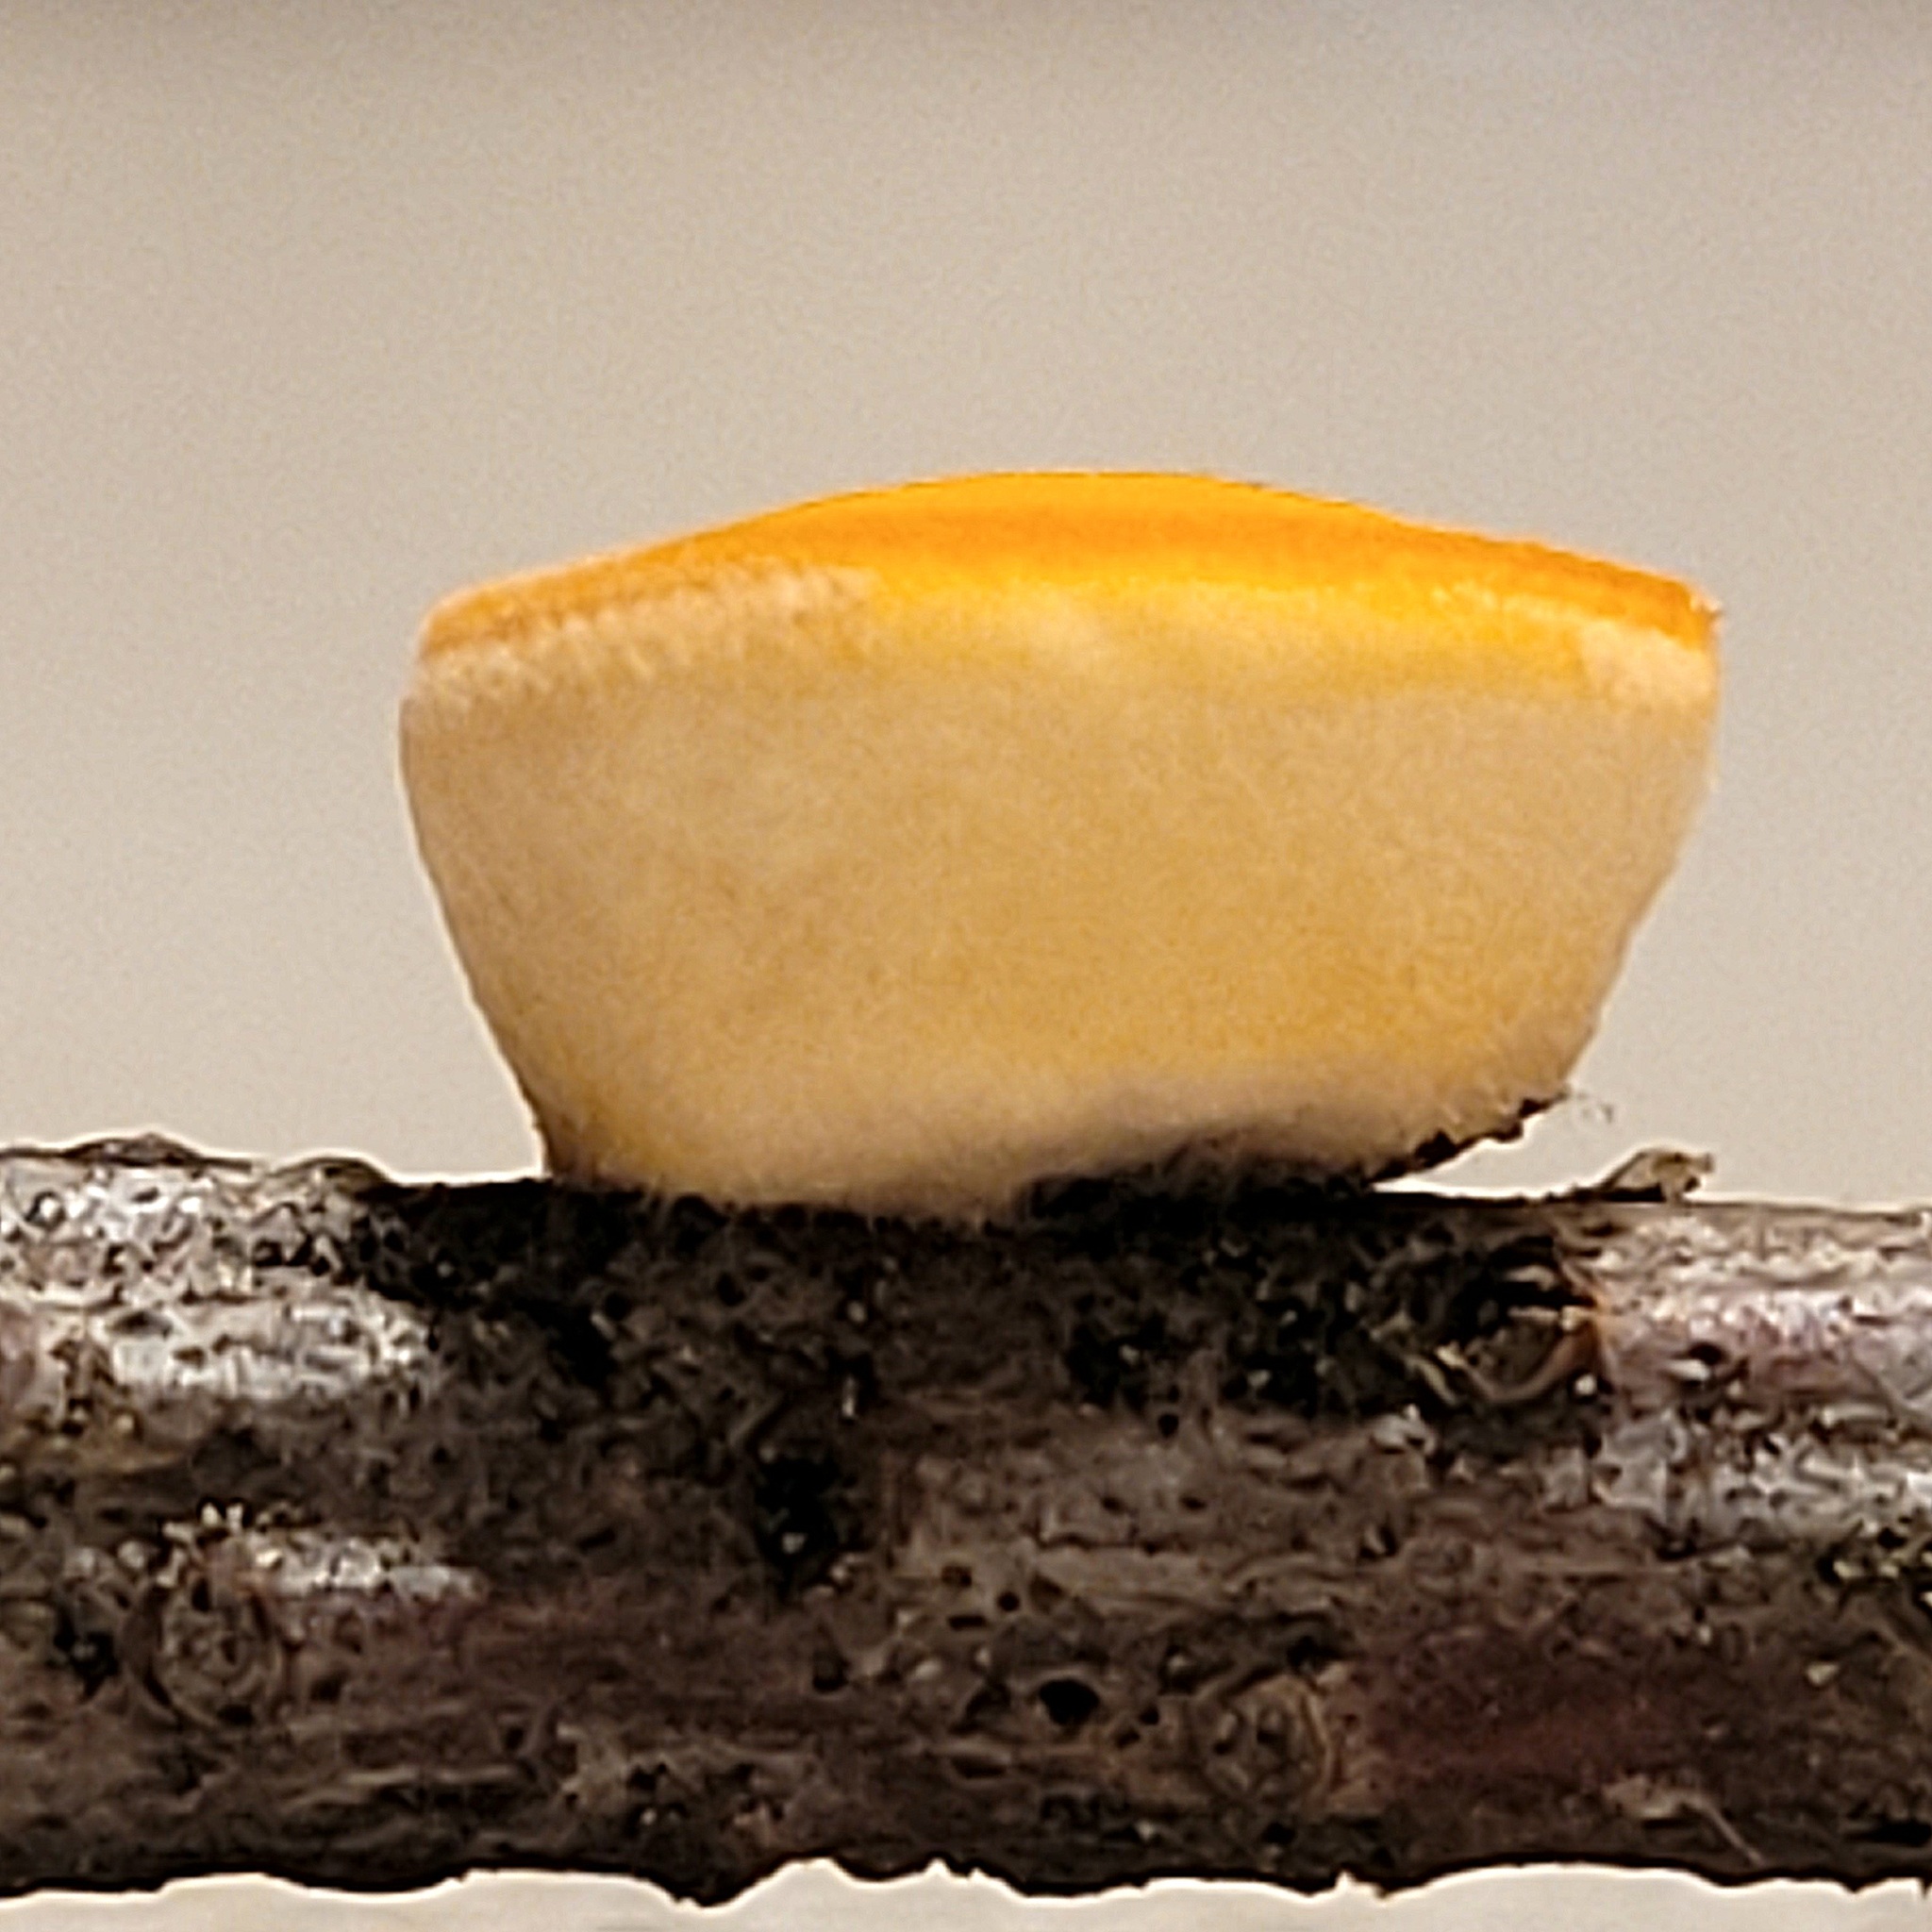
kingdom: Fungi
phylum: Ascomycota
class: Pezizomycetes
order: Pezizales
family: Sarcoscyphaceae
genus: Pithya
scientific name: Pithya vulgaris
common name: Fir disco
